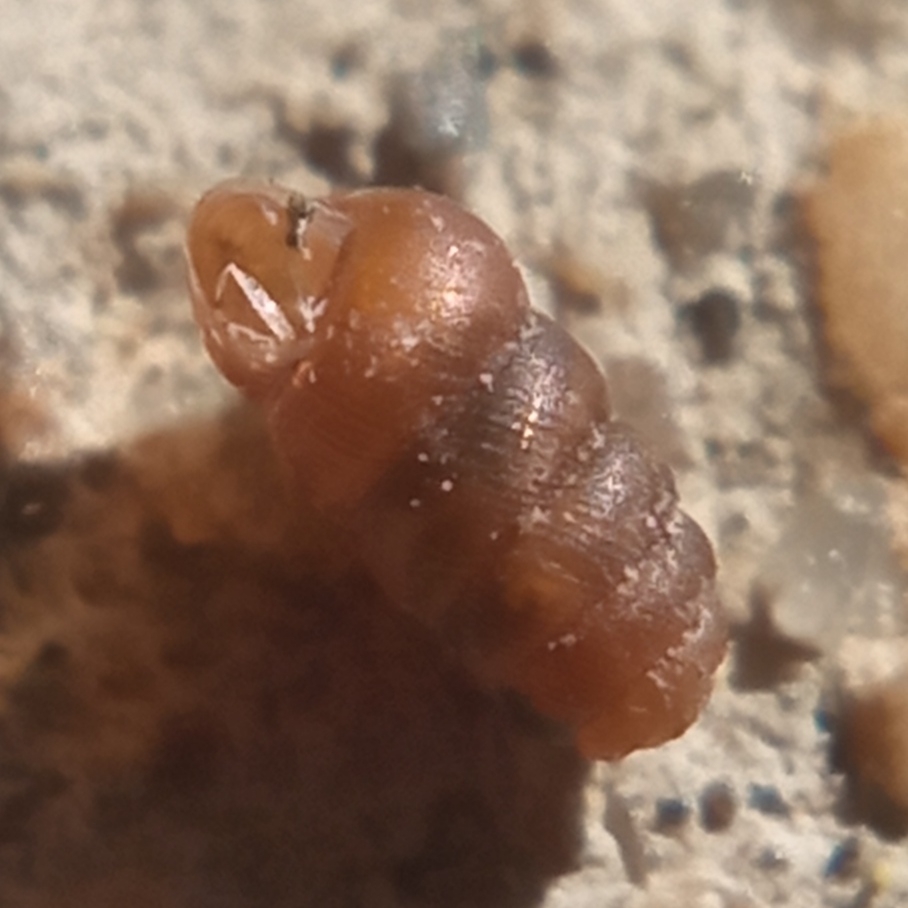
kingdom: Animalia
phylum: Mollusca
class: Gastropoda
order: Stylommatophora
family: Truncatellinidae
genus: Truncatellina
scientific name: Truncatellina cylindrica
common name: Cylindrical whorl snail
